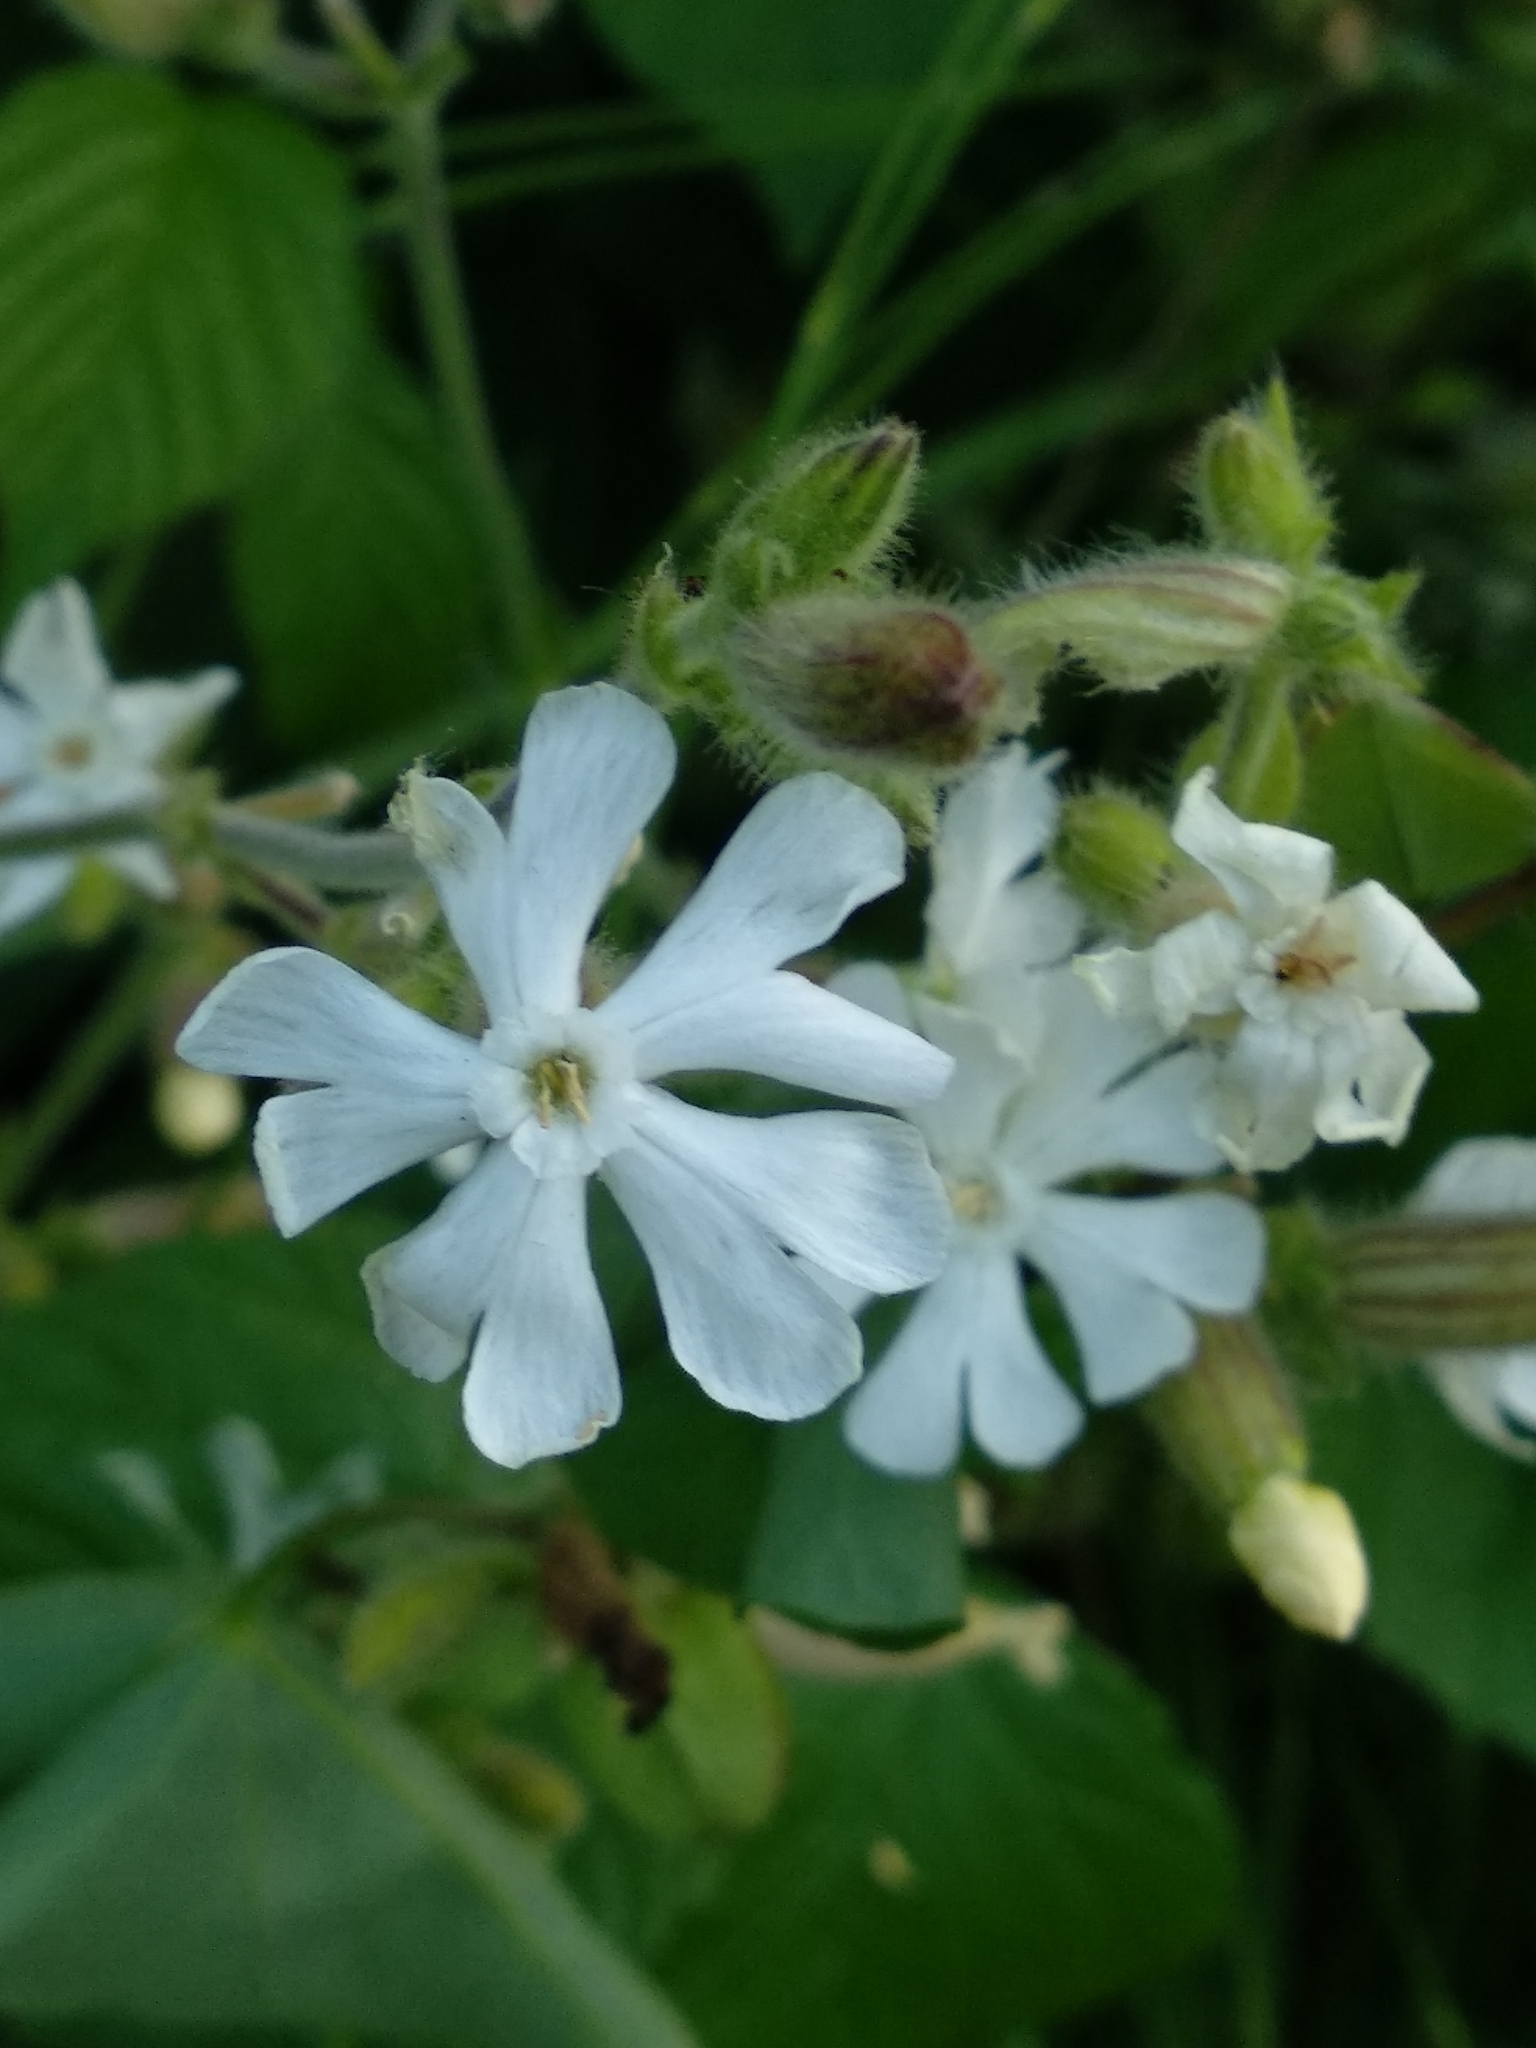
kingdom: Plantae
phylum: Tracheophyta
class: Magnoliopsida
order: Caryophyllales
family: Caryophyllaceae
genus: Silene
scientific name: Silene latifolia
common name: White campion
